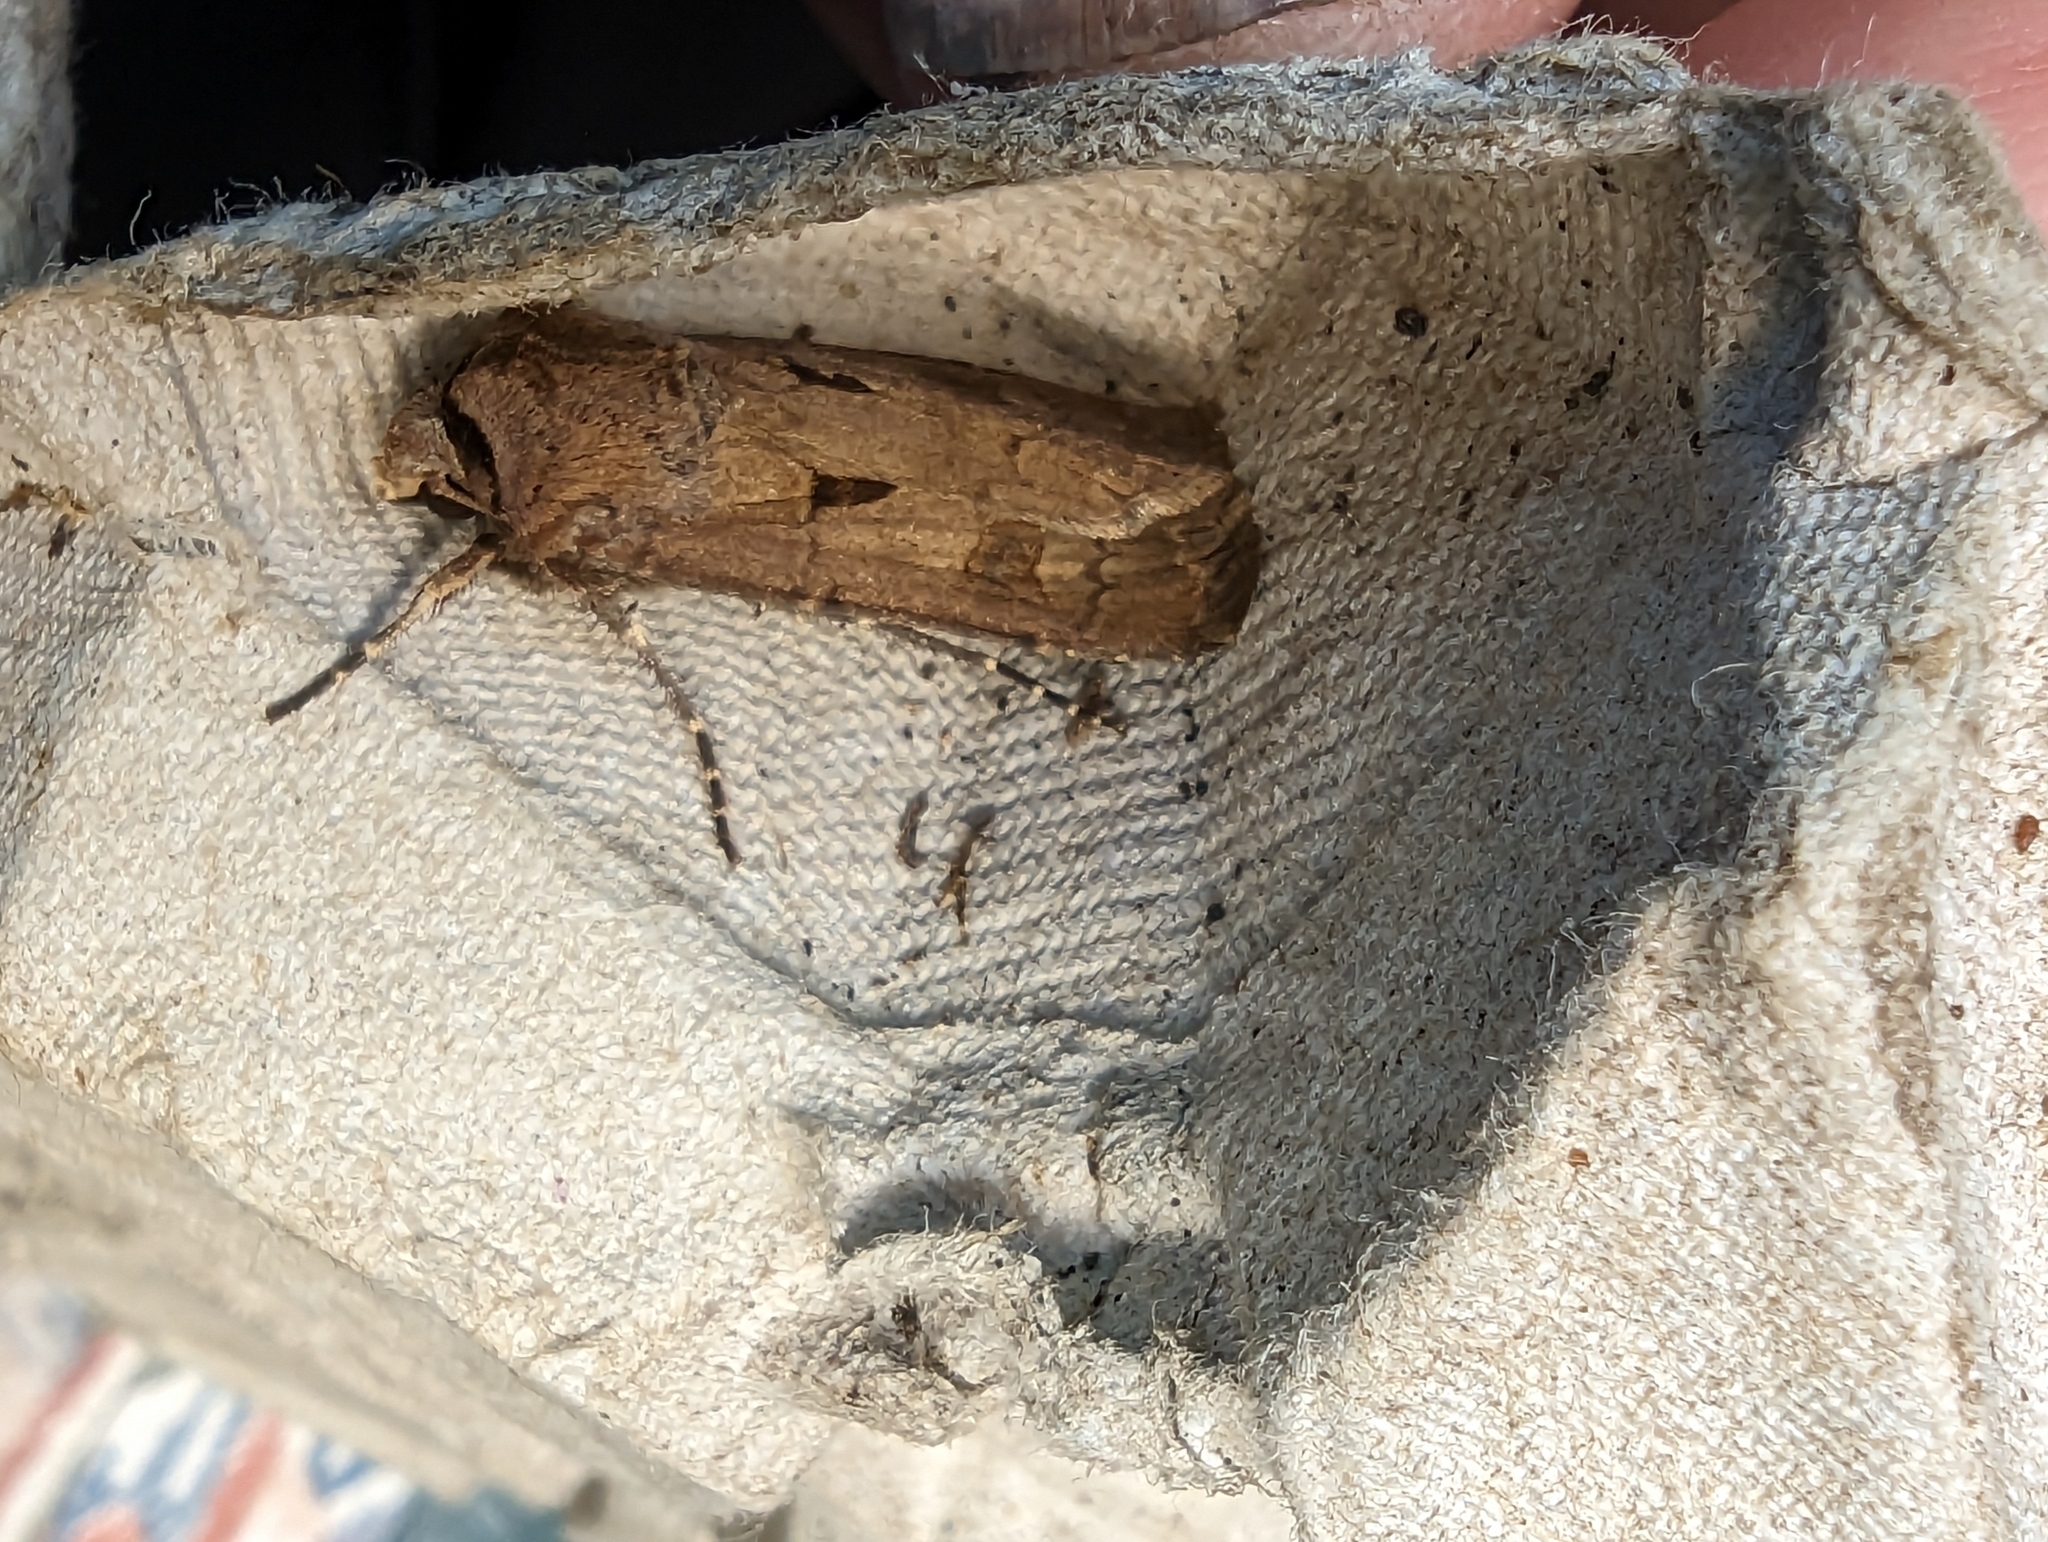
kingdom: Animalia
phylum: Arthropoda
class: Insecta
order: Lepidoptera
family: Noctuidae
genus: Agrotis
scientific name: Agrotis exclamationis
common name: Heart and dart
